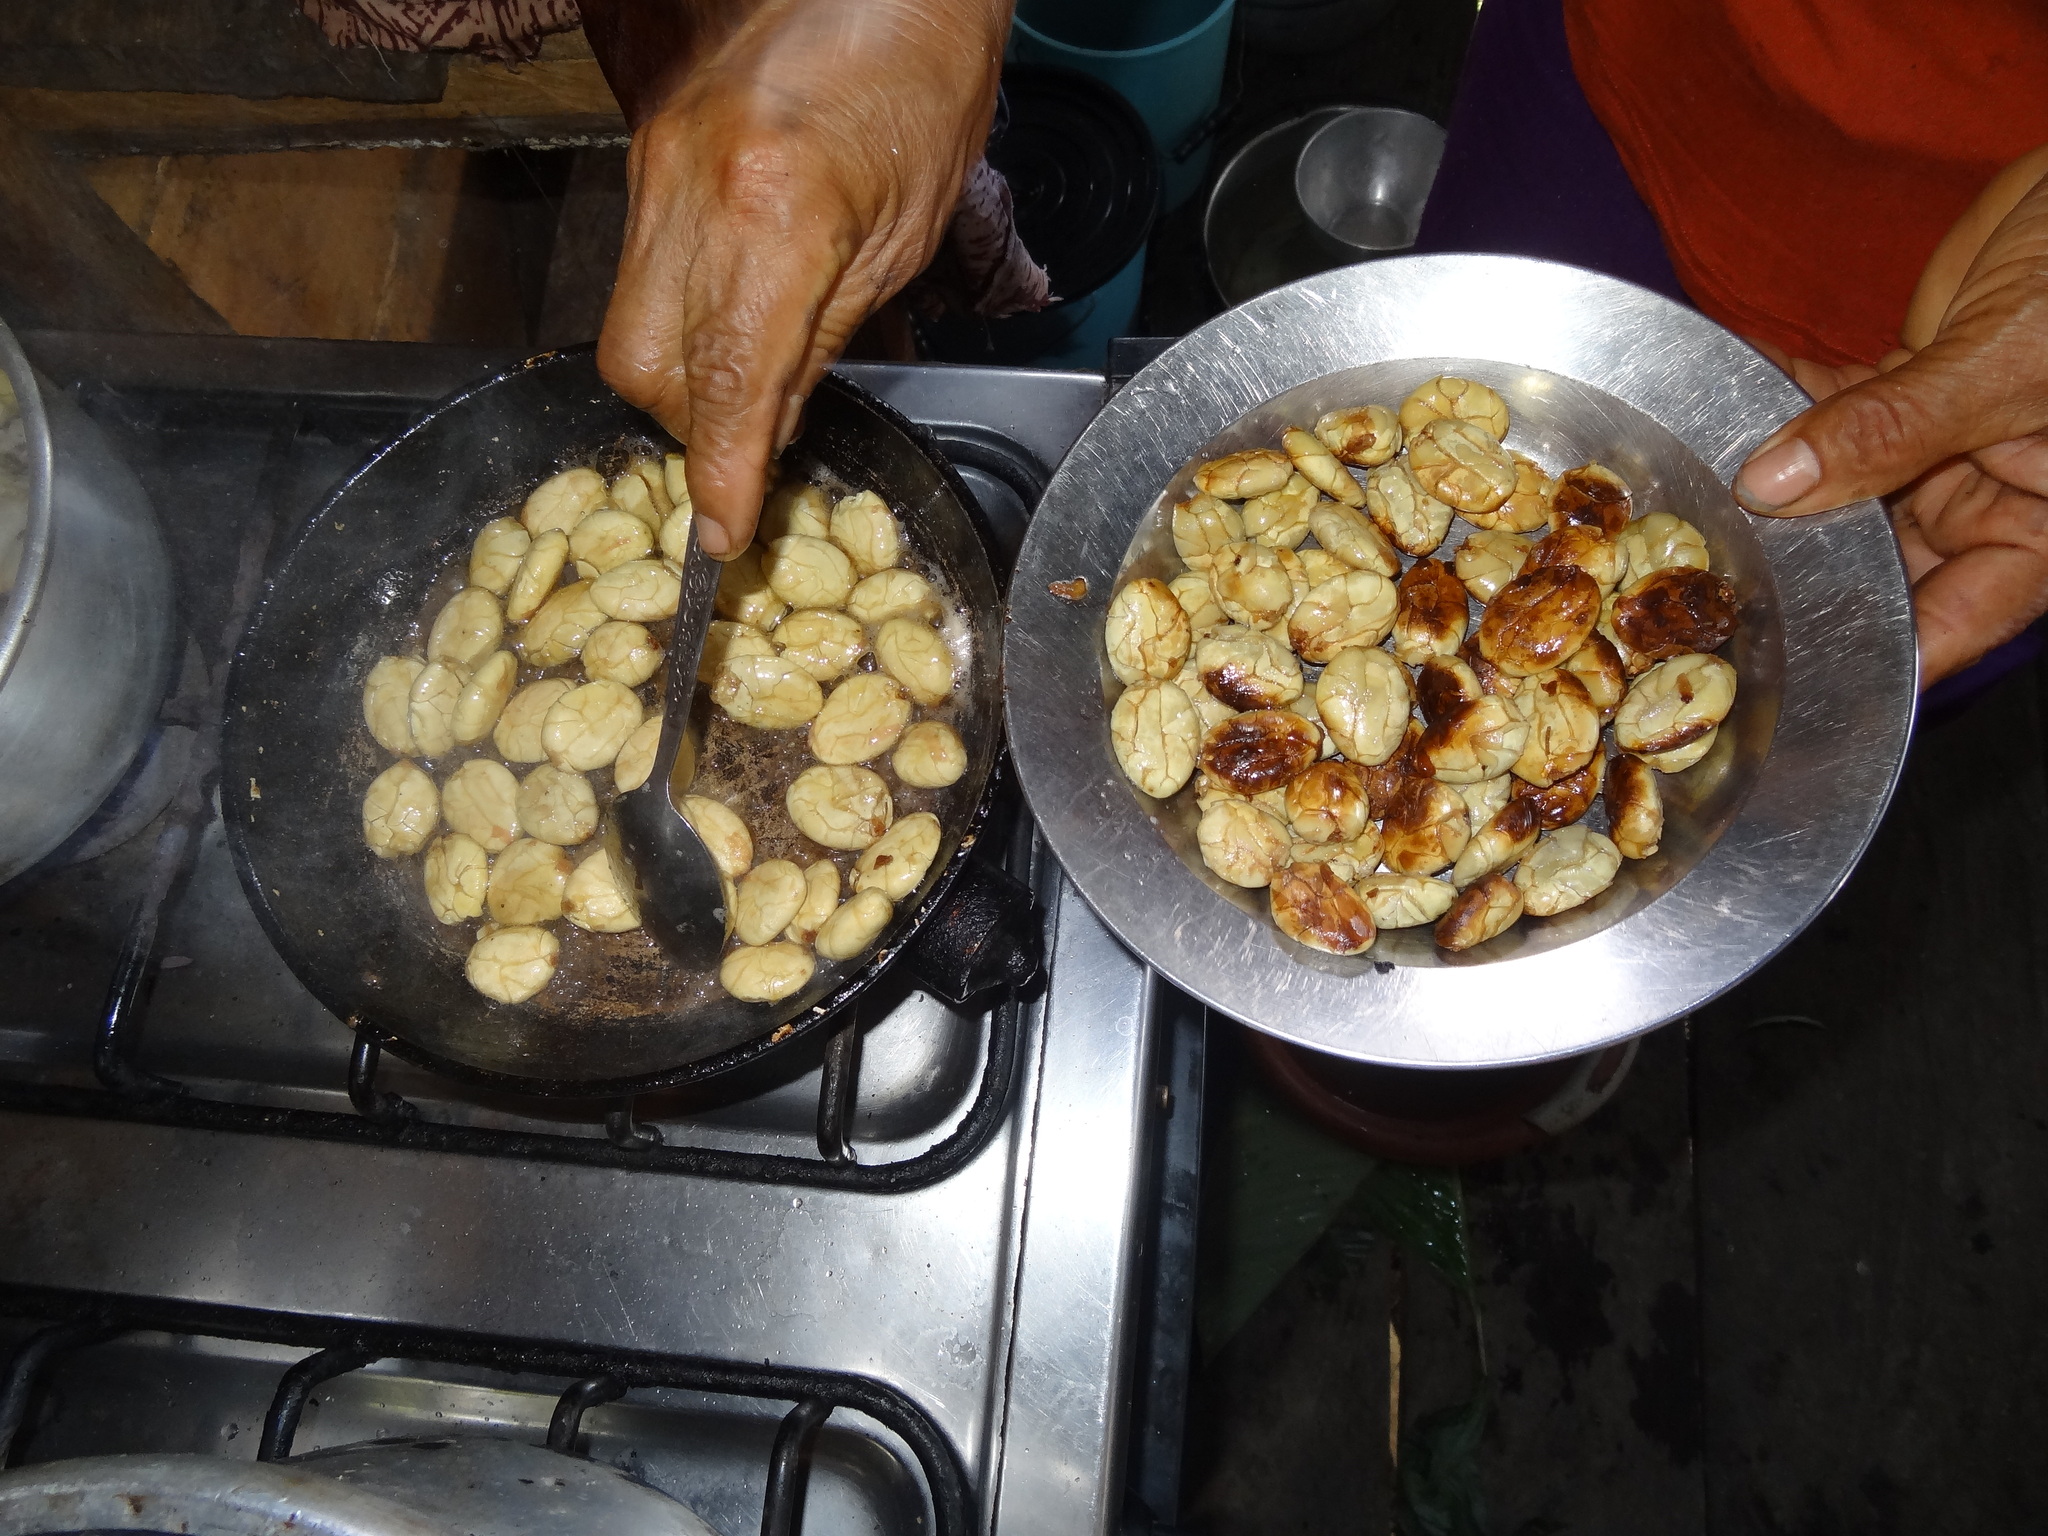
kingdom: Plantae
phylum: Tracheophyta
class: Magnoliopsida
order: Malvales
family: Malvaceae
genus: Theobroma
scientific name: Theobroma bicolor
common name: Macambo tree
